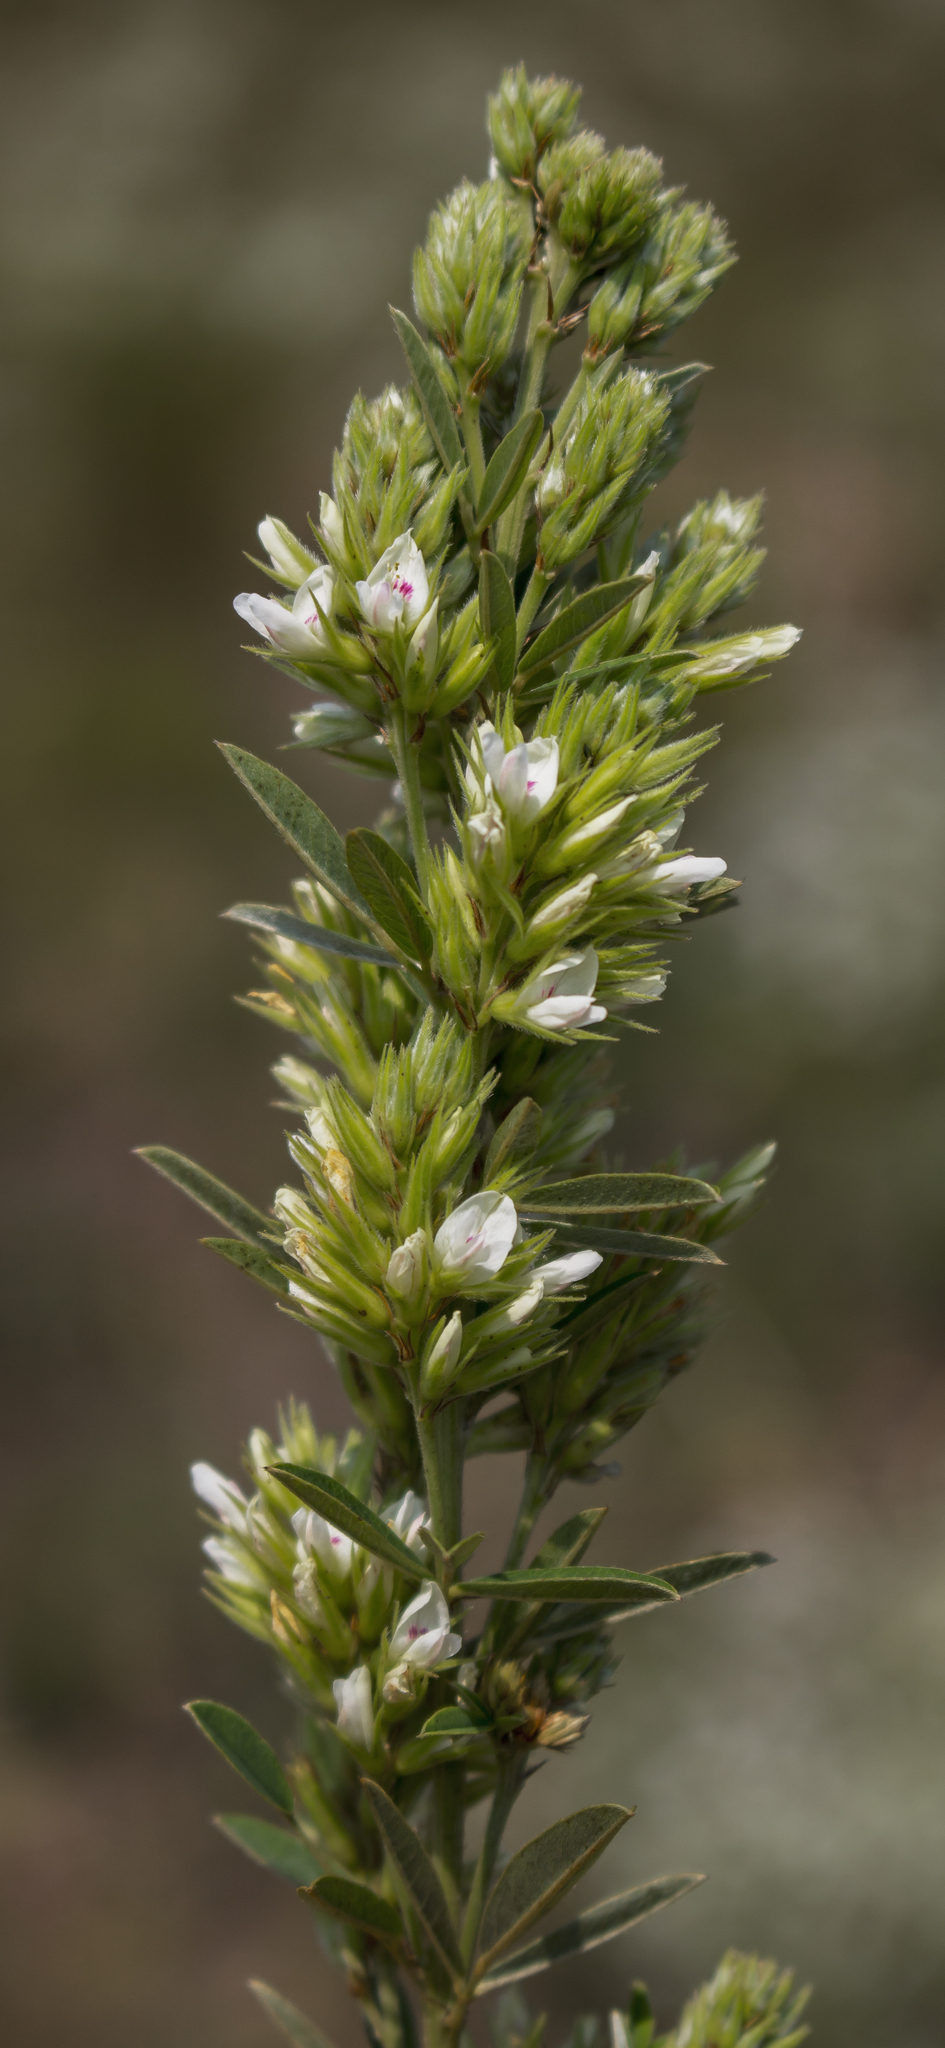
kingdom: Plantae
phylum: Tracheophyta
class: Magnoliopsida
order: Fabales
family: Fabaceae
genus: Lespedeza
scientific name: Lespedeza capitata
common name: Dusty clover
